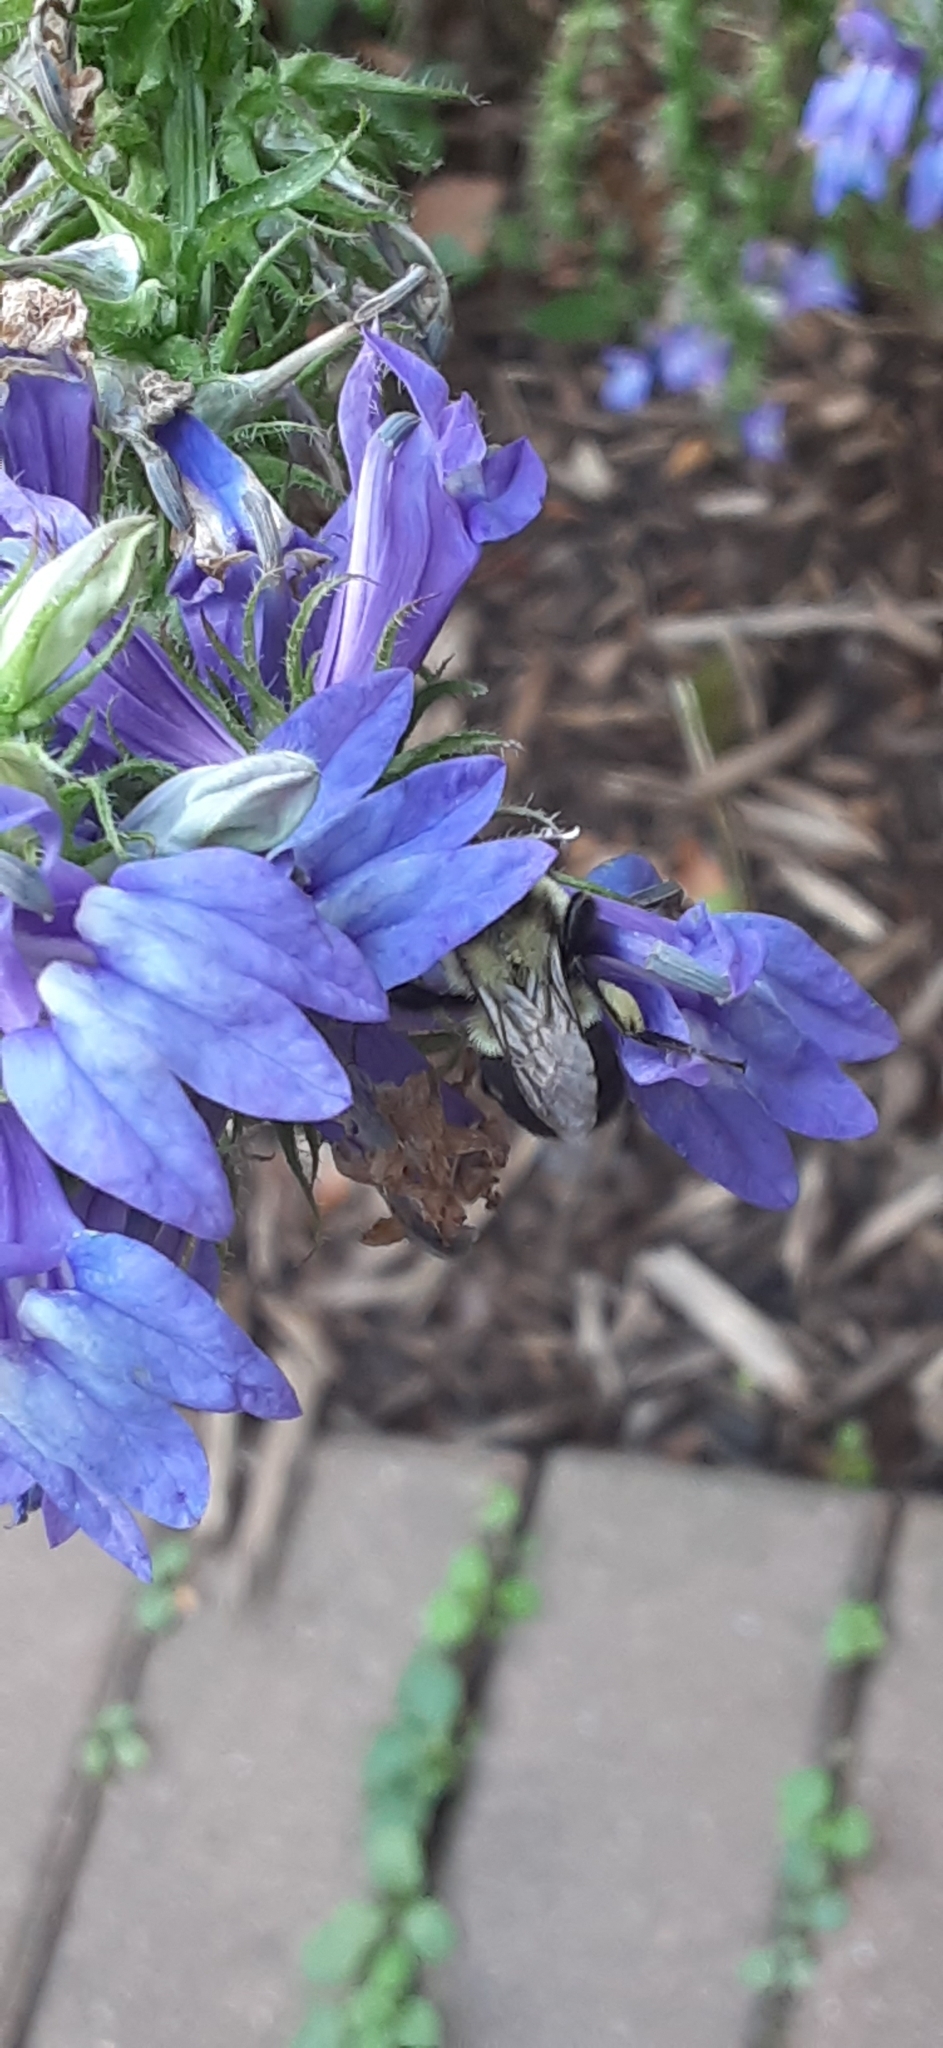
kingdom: Animalia
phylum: Arthropoda
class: Insecta
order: Hymenoptera
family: Apidae
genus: Bombus
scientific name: Bombus impatiens
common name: Common eastern bumble bee
